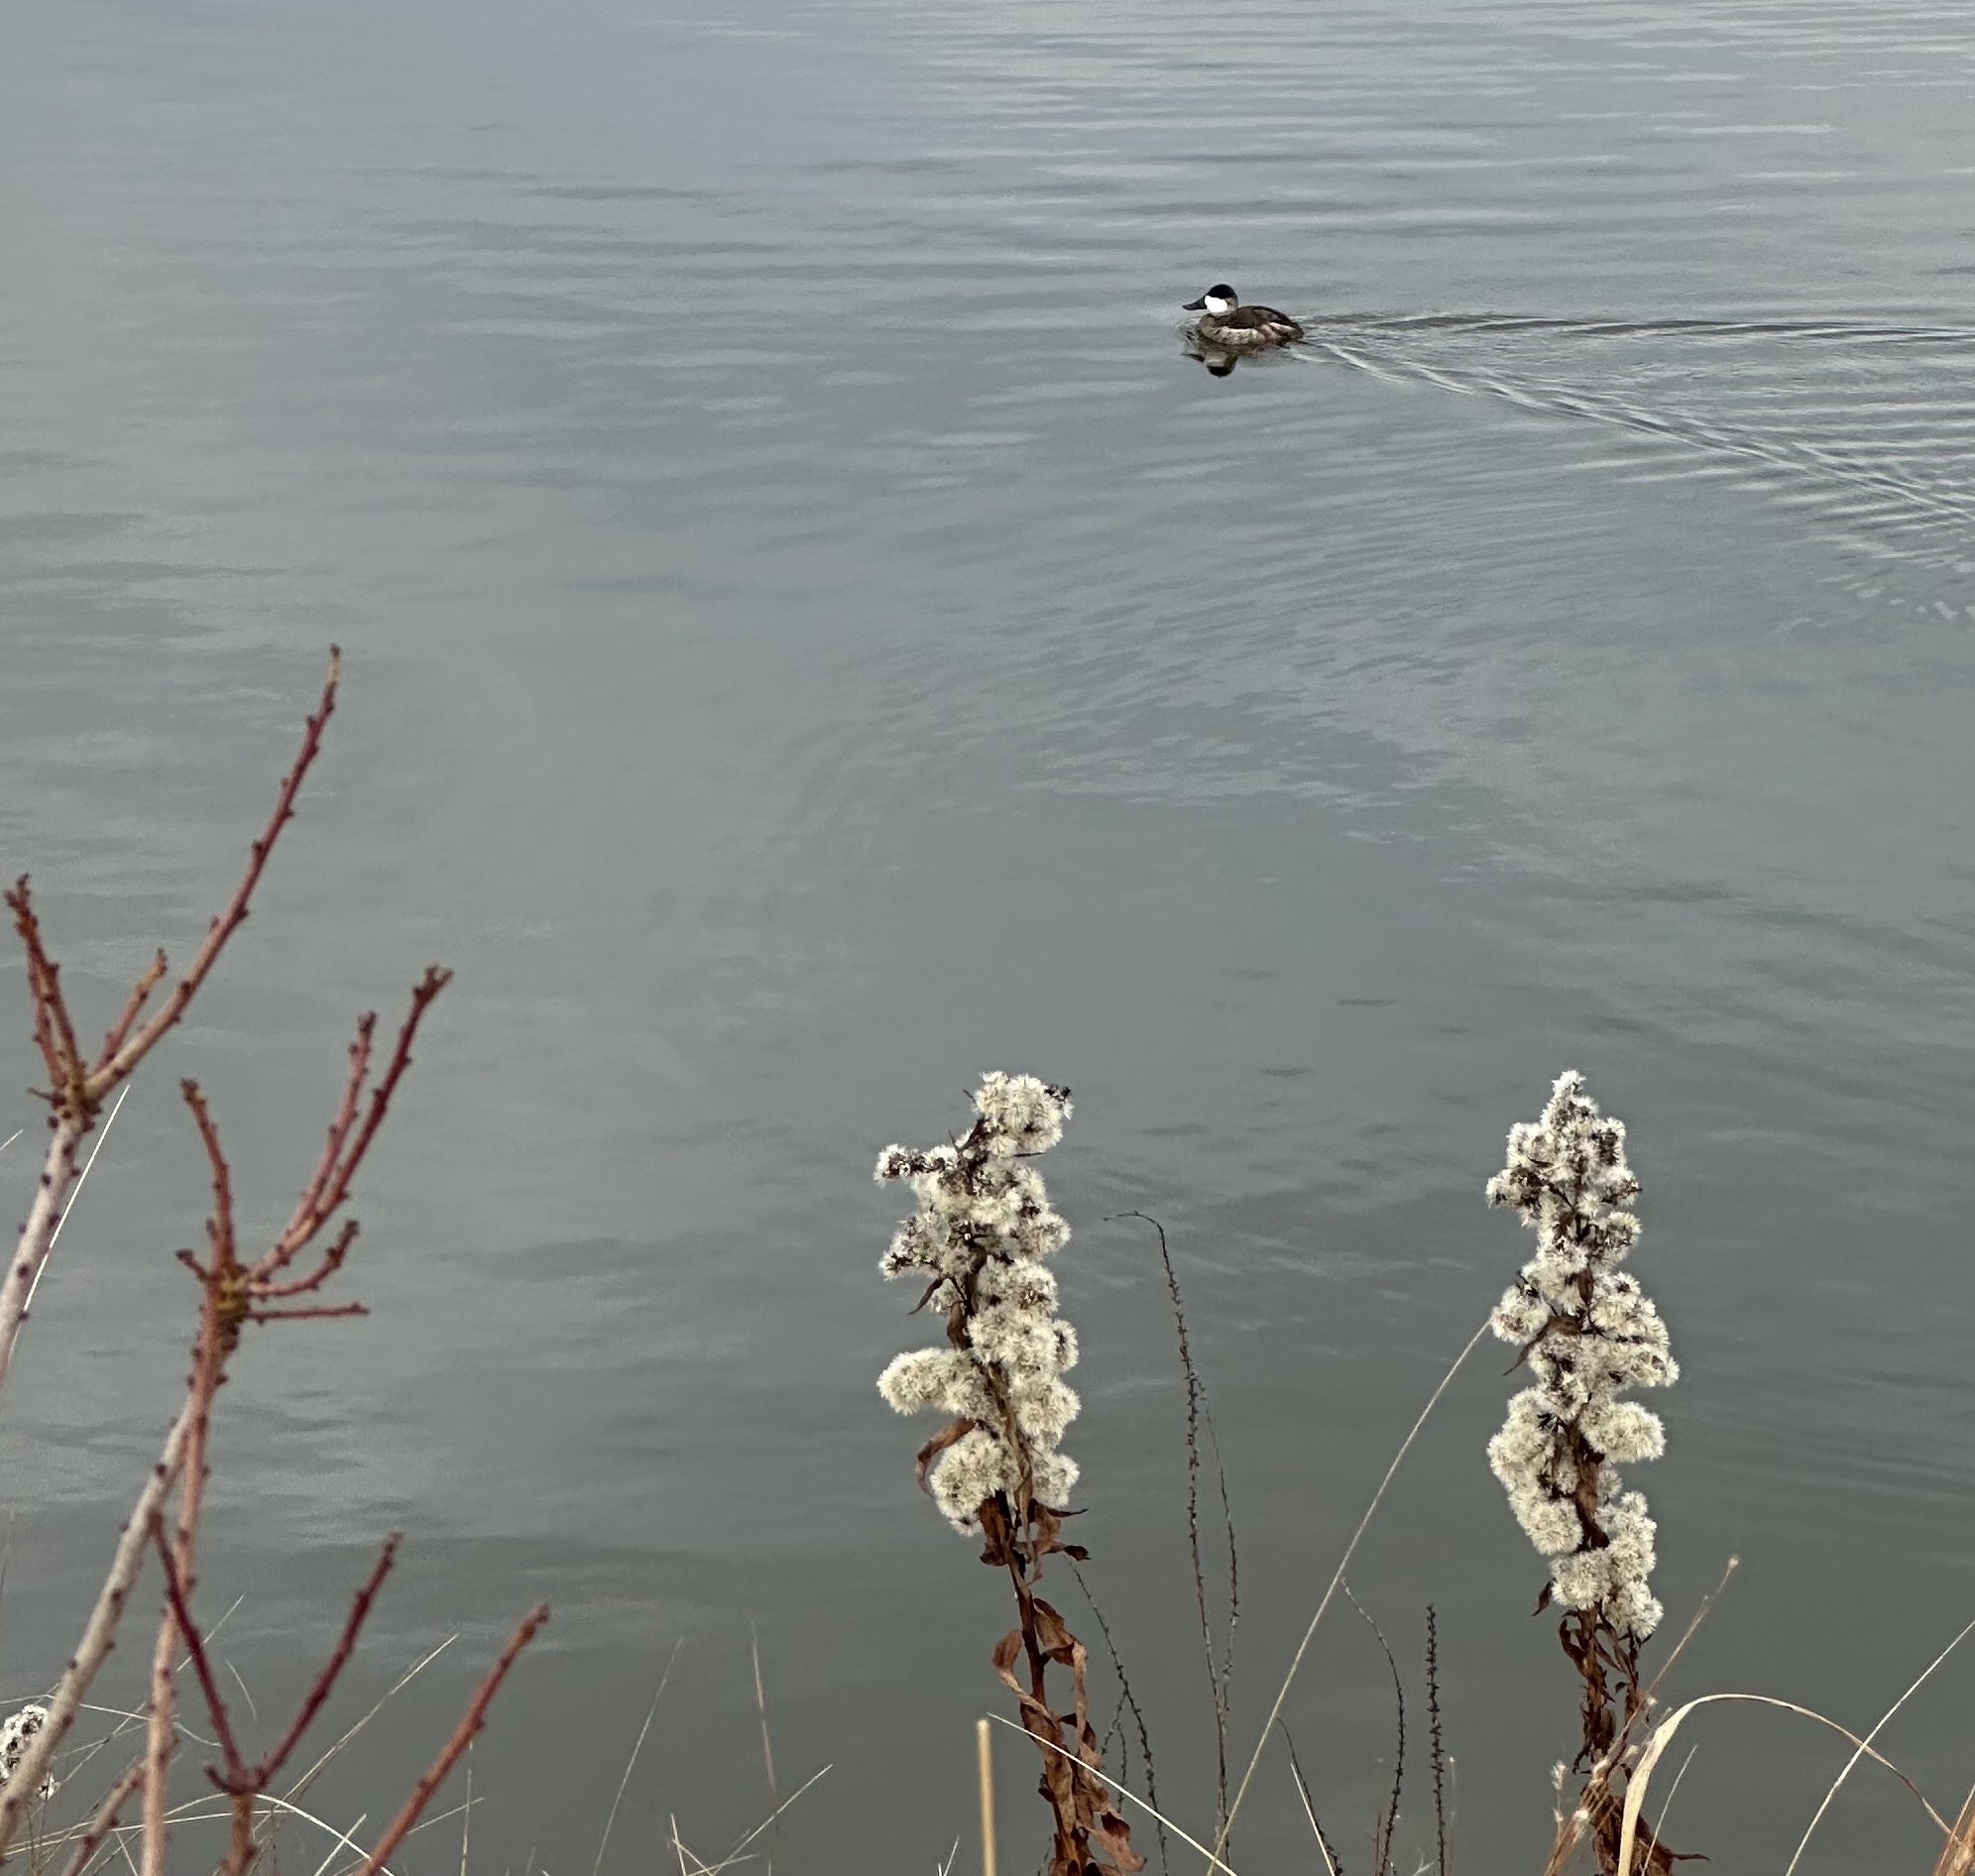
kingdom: Animalia
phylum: Chordata
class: Aves
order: Anseriformes
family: Anatidae
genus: Oxyura
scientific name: Oxyura jamaicensis
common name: Ruddy duck
